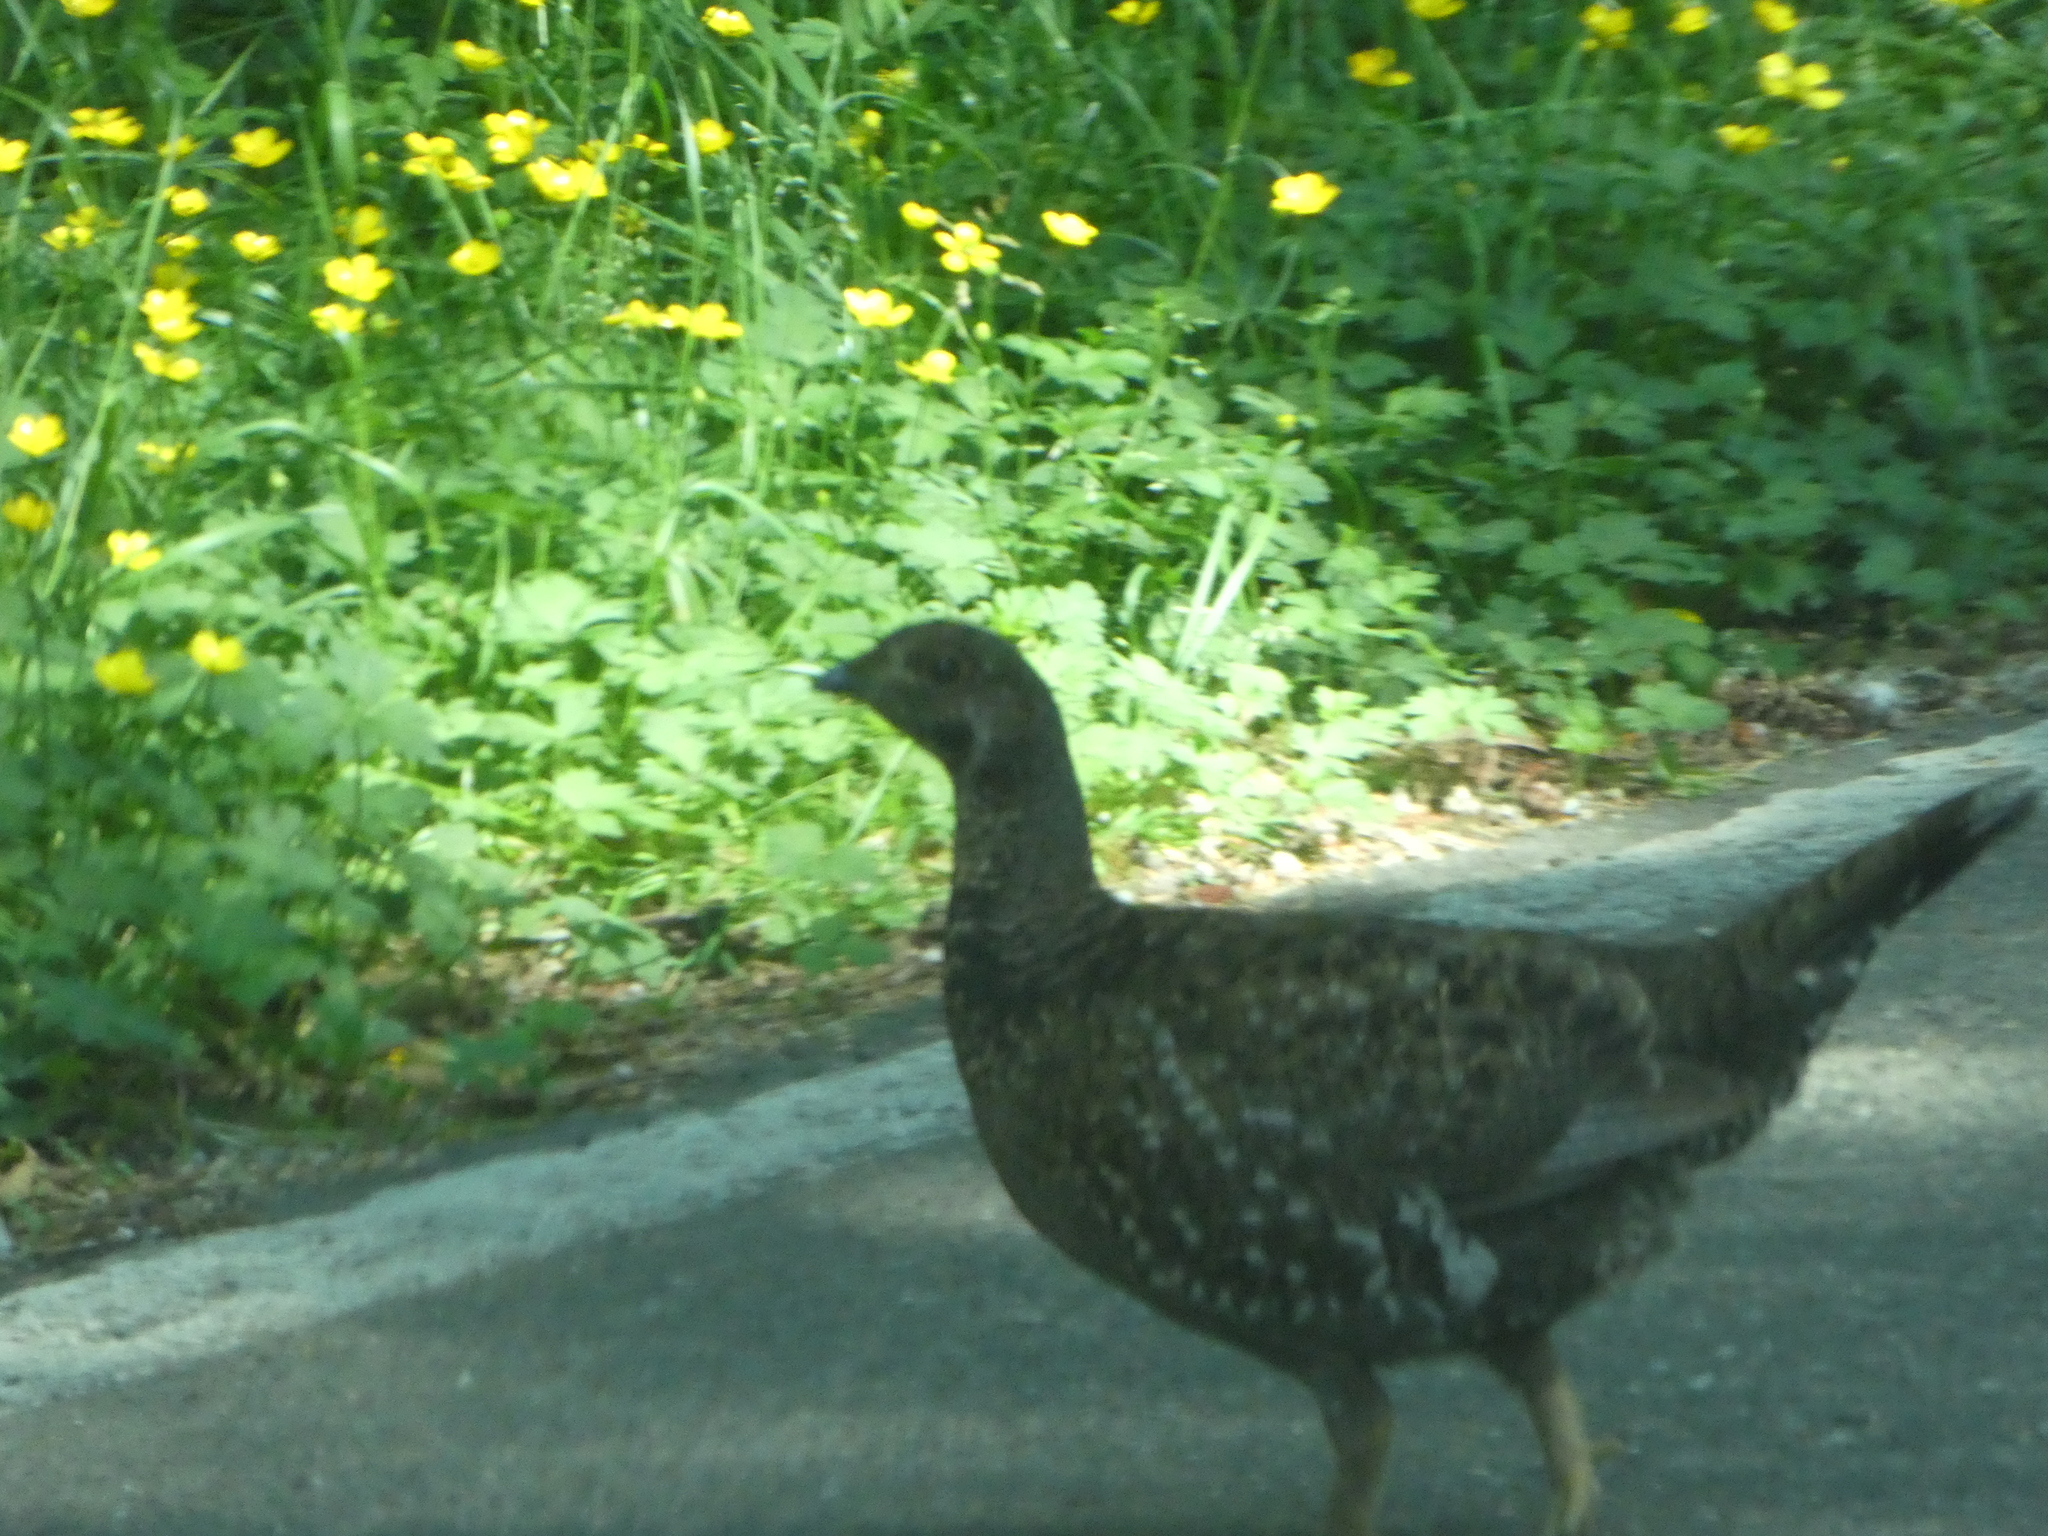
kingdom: Animalia
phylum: Chordata
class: Aves
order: Galliformes
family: Phasianidae
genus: Dendragapus
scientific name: Dendragapus fuliginosus
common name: Sooty grouse
